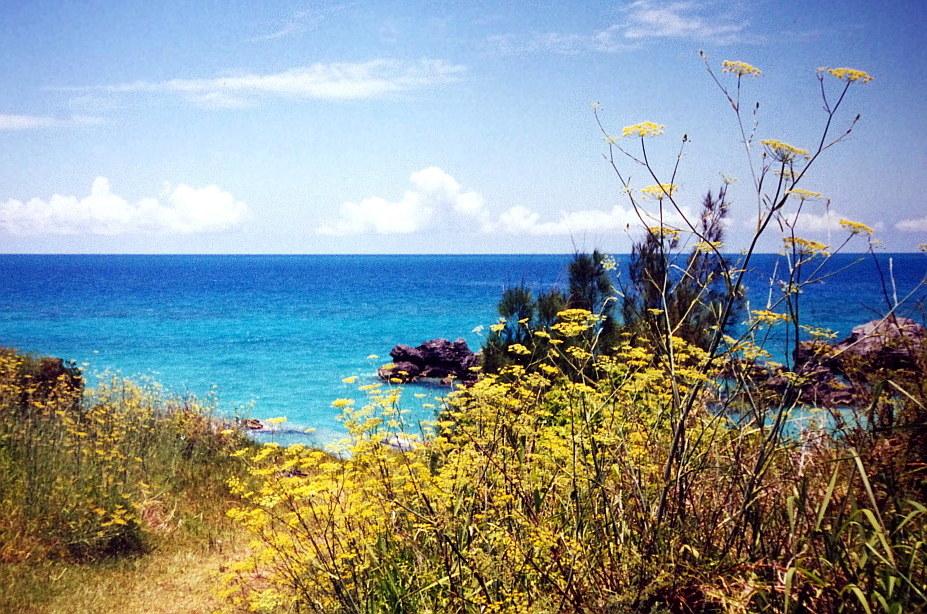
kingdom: Plantae
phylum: Tracheophyta
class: Magnoliopsida
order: Apiales
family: Apiaceae
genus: Foeniculum
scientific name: Foeniculum vulgare
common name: Fennel
